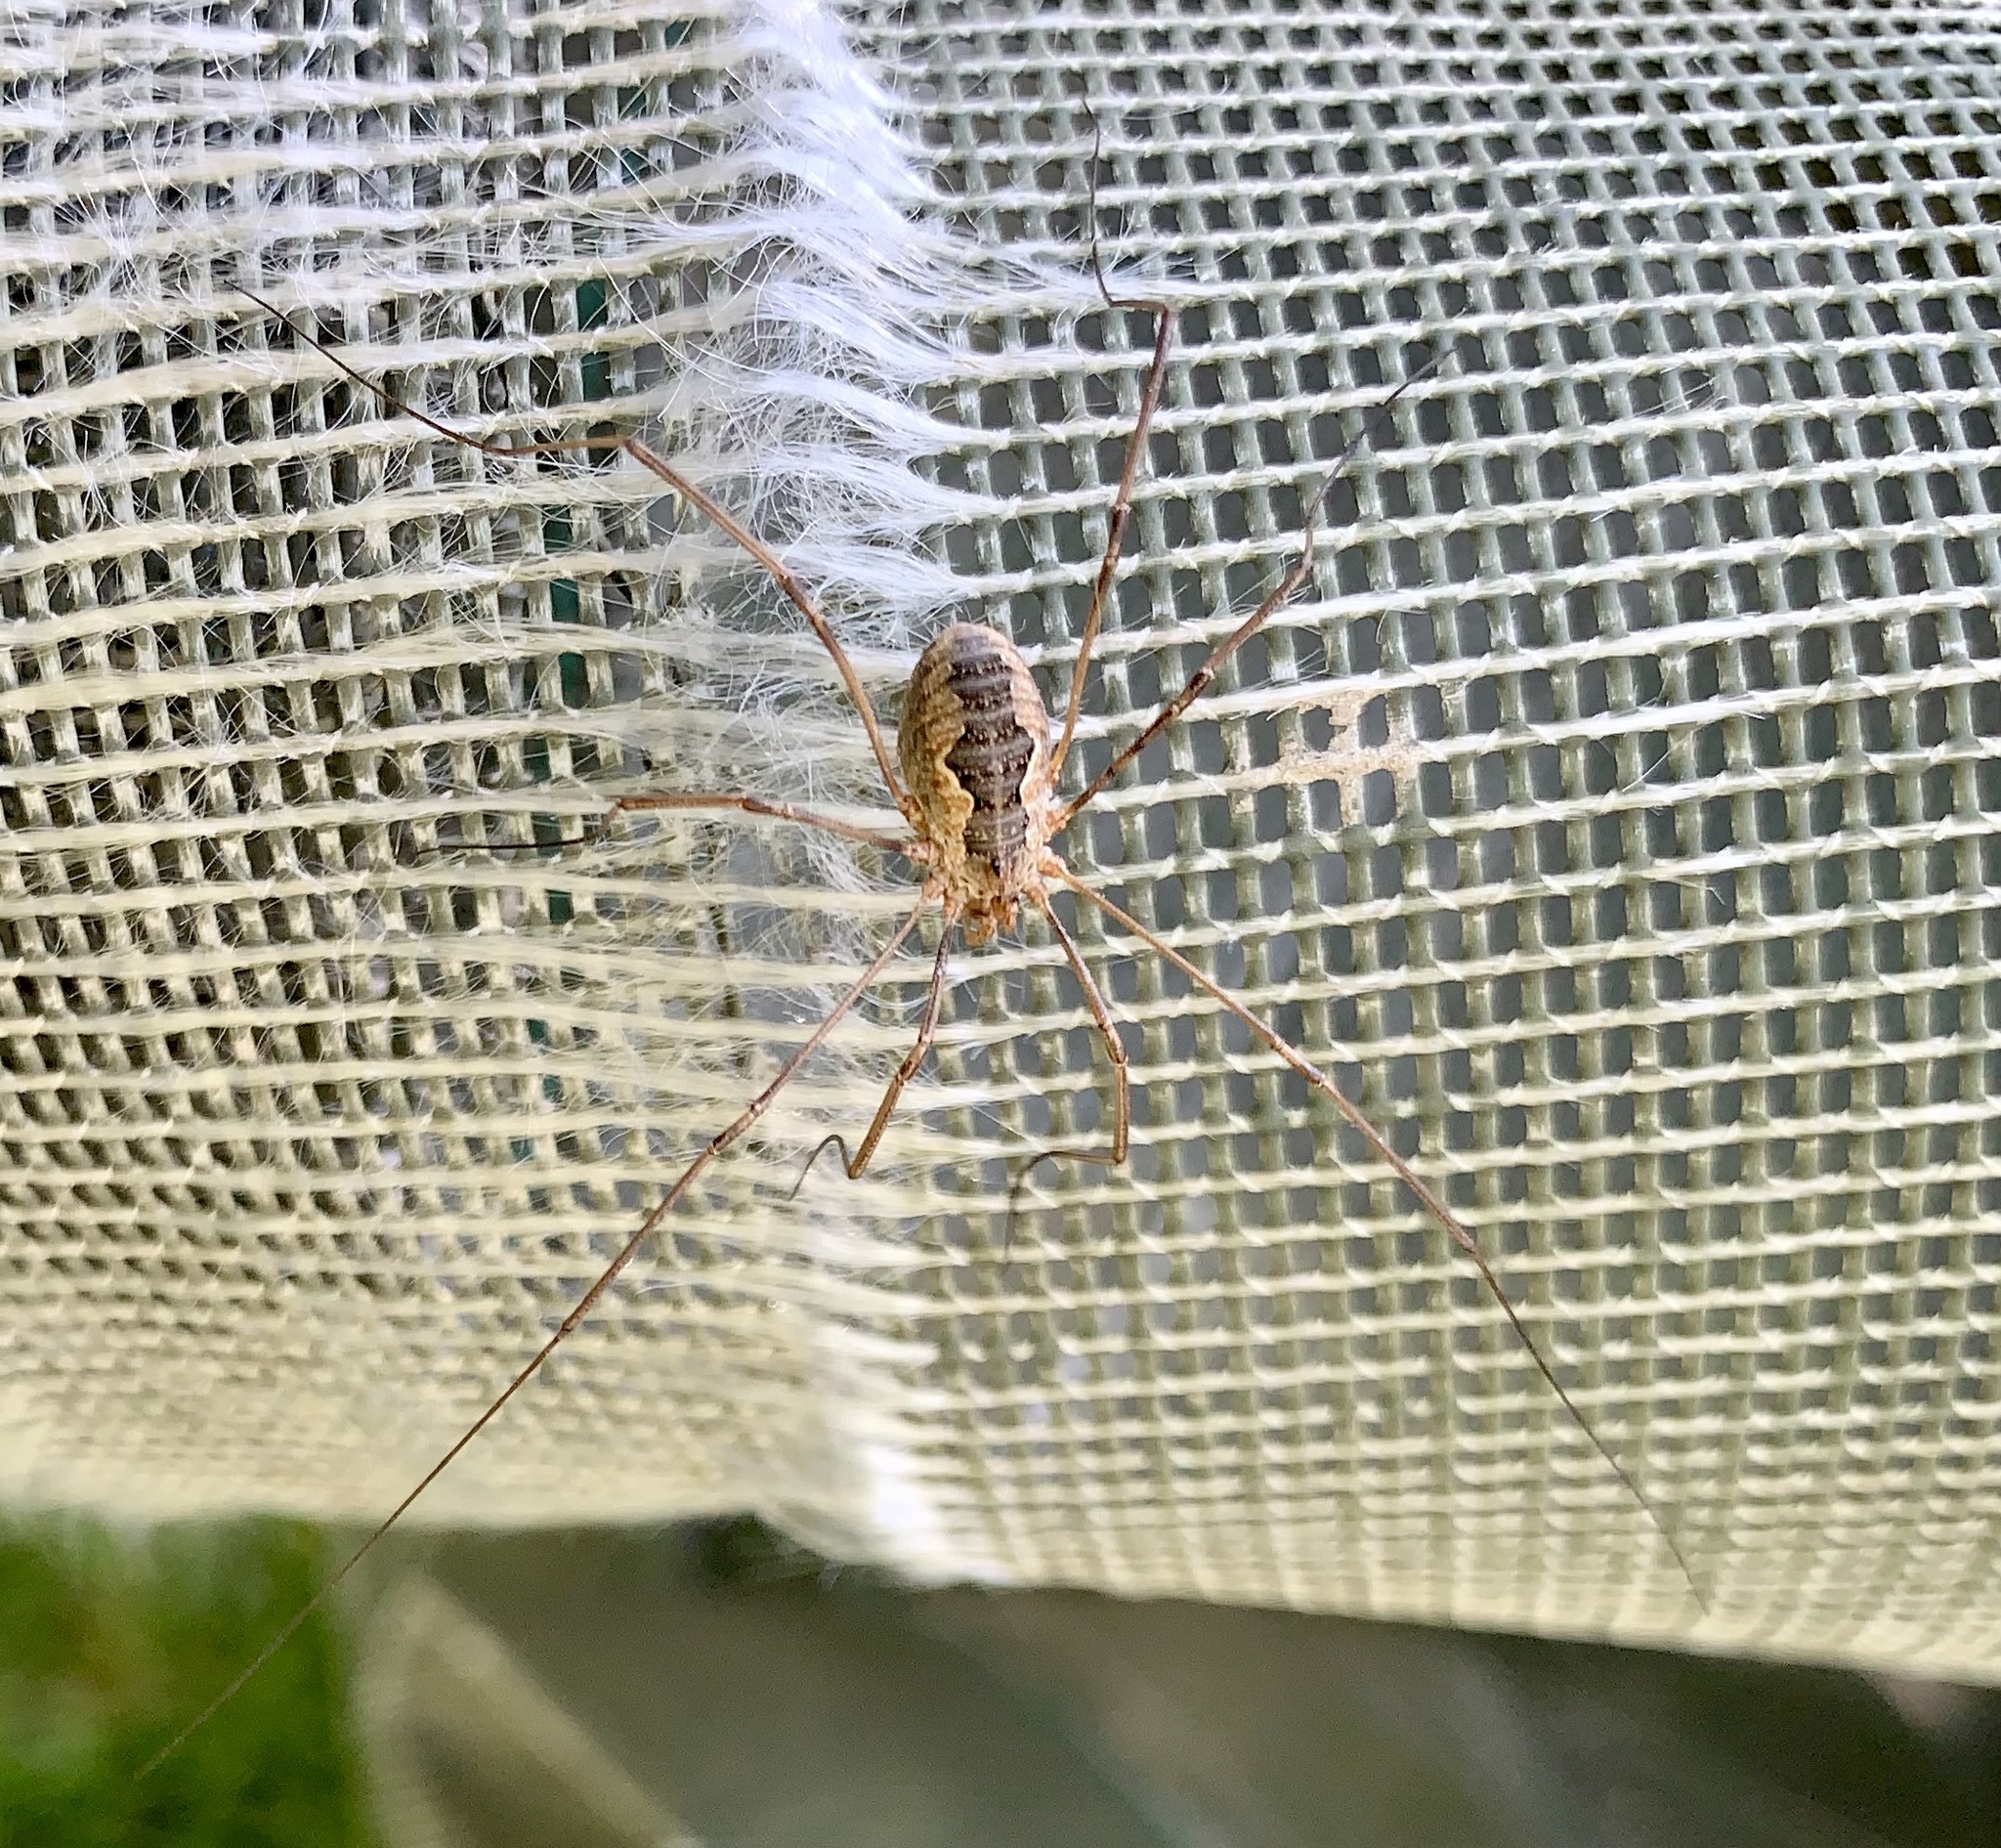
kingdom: Animalia
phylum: Arthropoda
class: Arachnida
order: Opiliones
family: Phalangiidae
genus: Phalangium
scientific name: Phalangium opilio
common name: Daddy longleg
